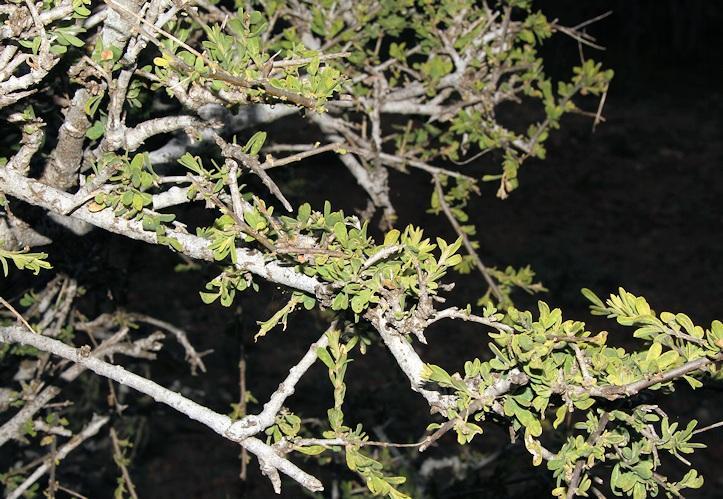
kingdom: Plantae
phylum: Tracheophyta
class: Magnoliopsida
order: Brassicales
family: Capparaceae
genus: Boscia
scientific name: Boscia albitrunca
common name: Caper bush
